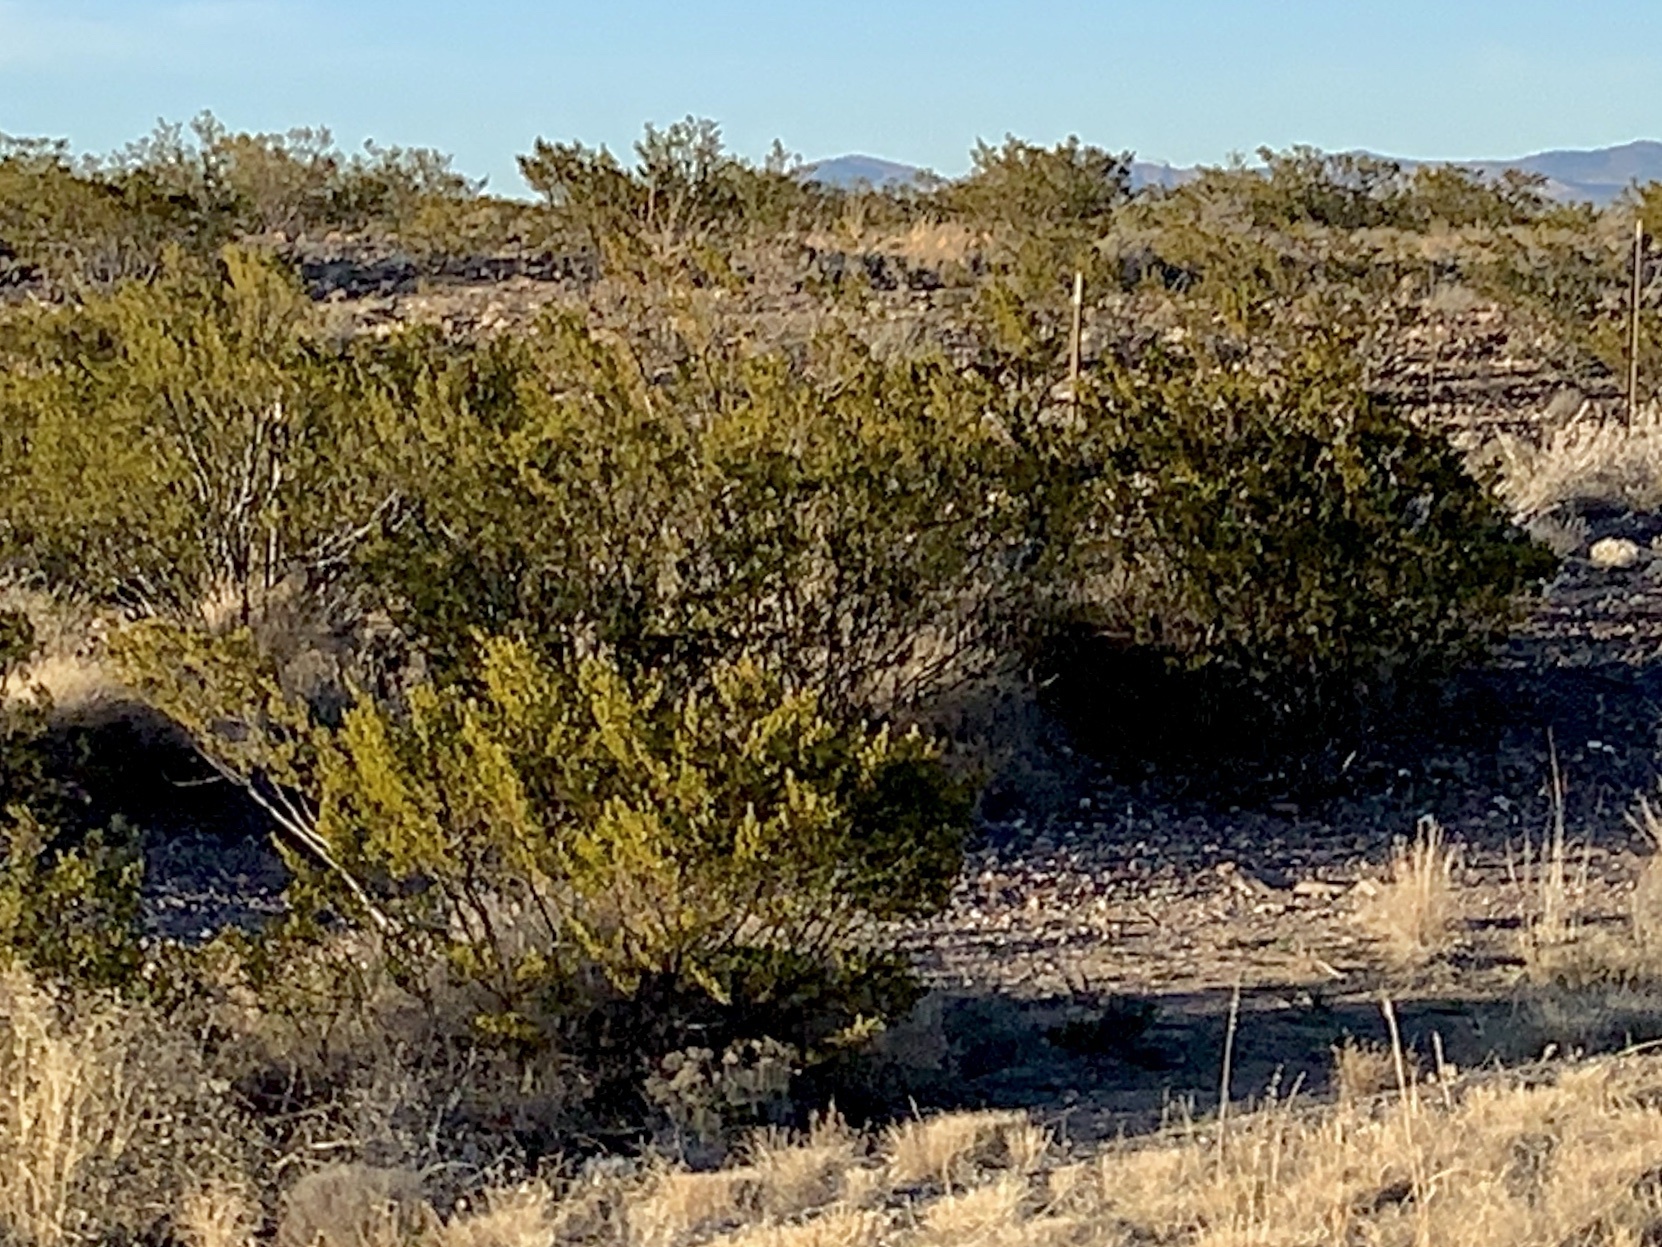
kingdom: Plantae
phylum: Tracheophyta
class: Magnoliopsida
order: Zygophyllales
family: Zygophyllaceae
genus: Larrea
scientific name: Larrea tridentata
